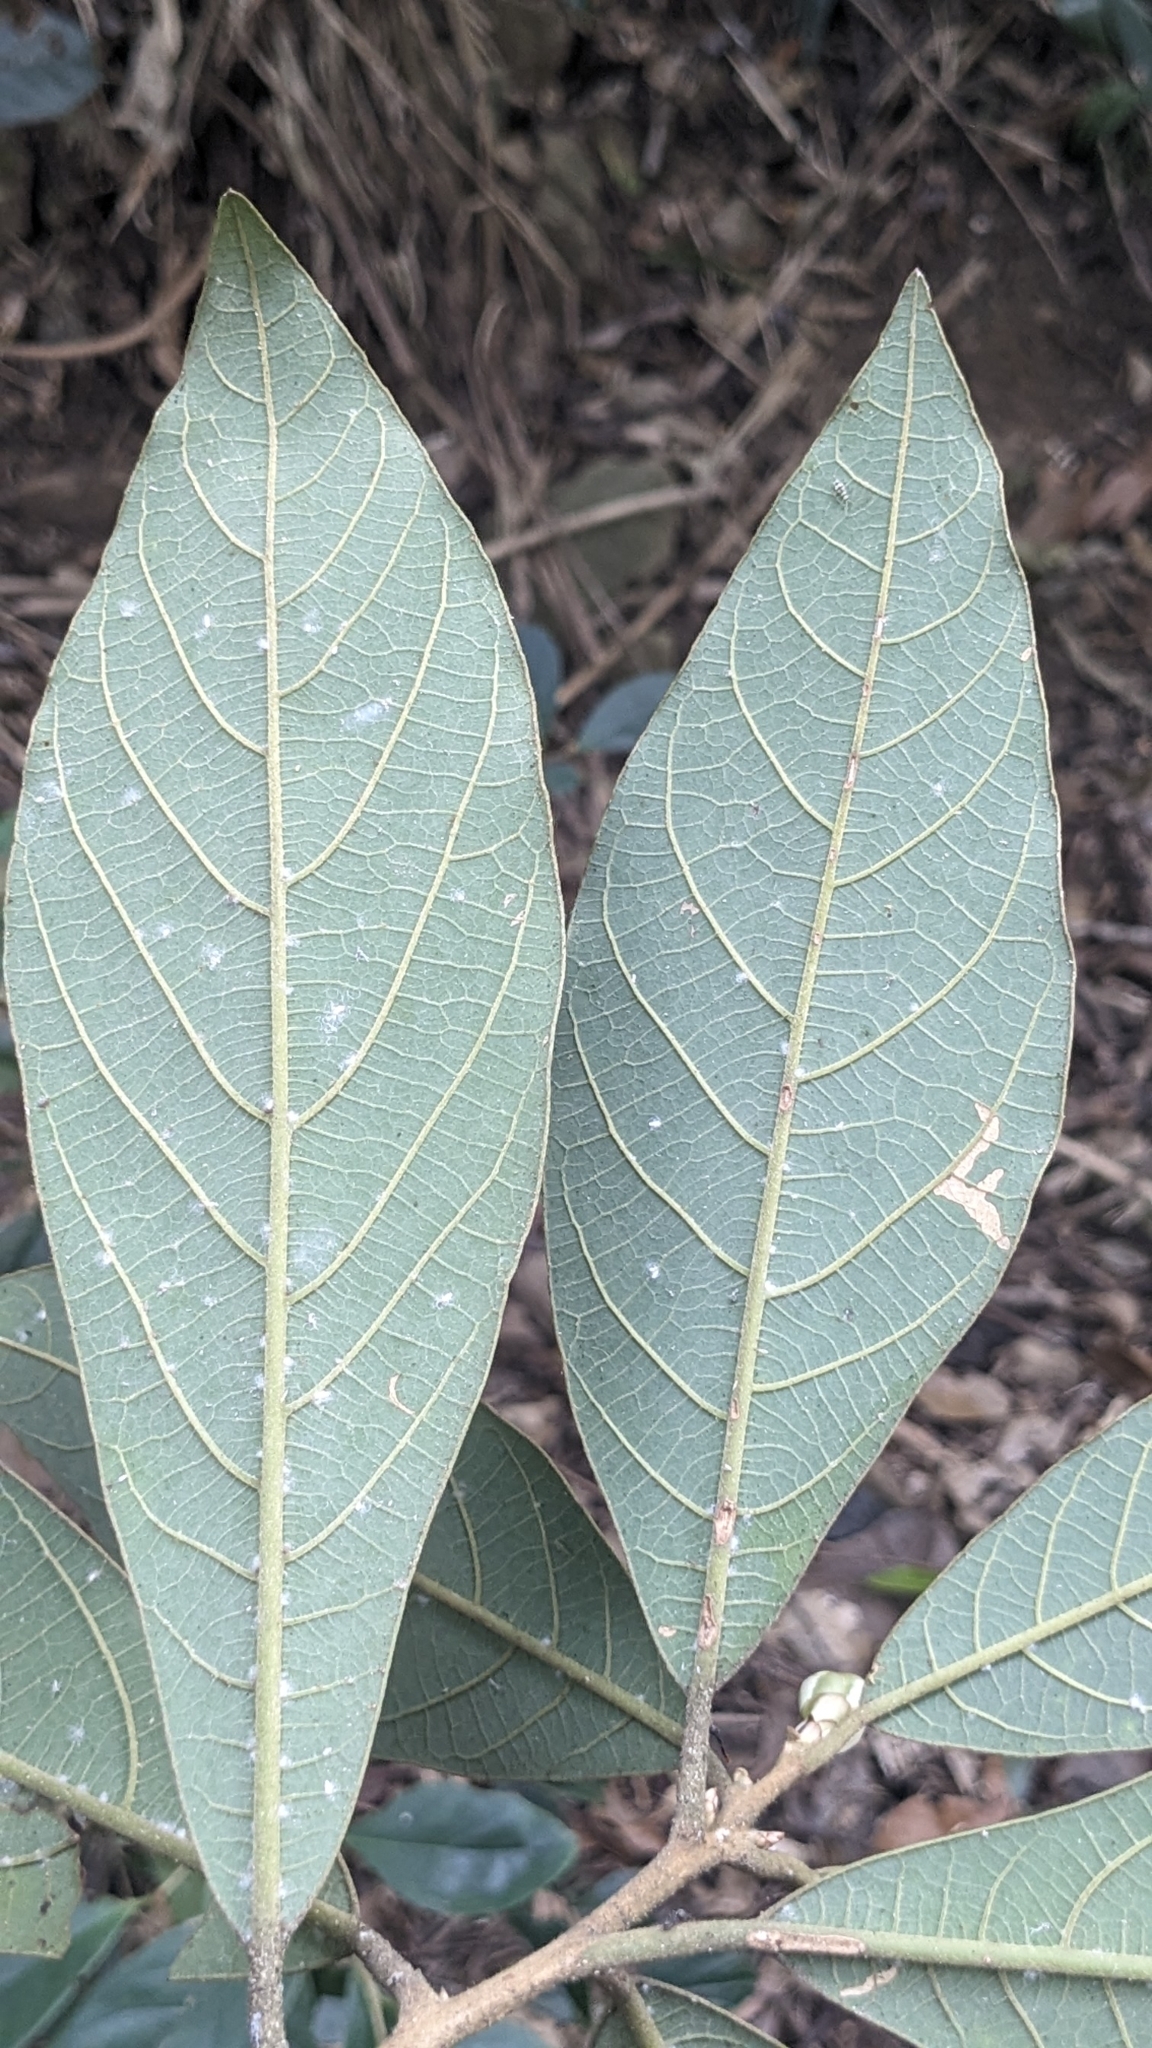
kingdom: Plantae
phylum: Tracheophyta
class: Magnoliopsida
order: Laurales
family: Lauraceae
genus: Litsea
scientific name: Litsea akoensis
